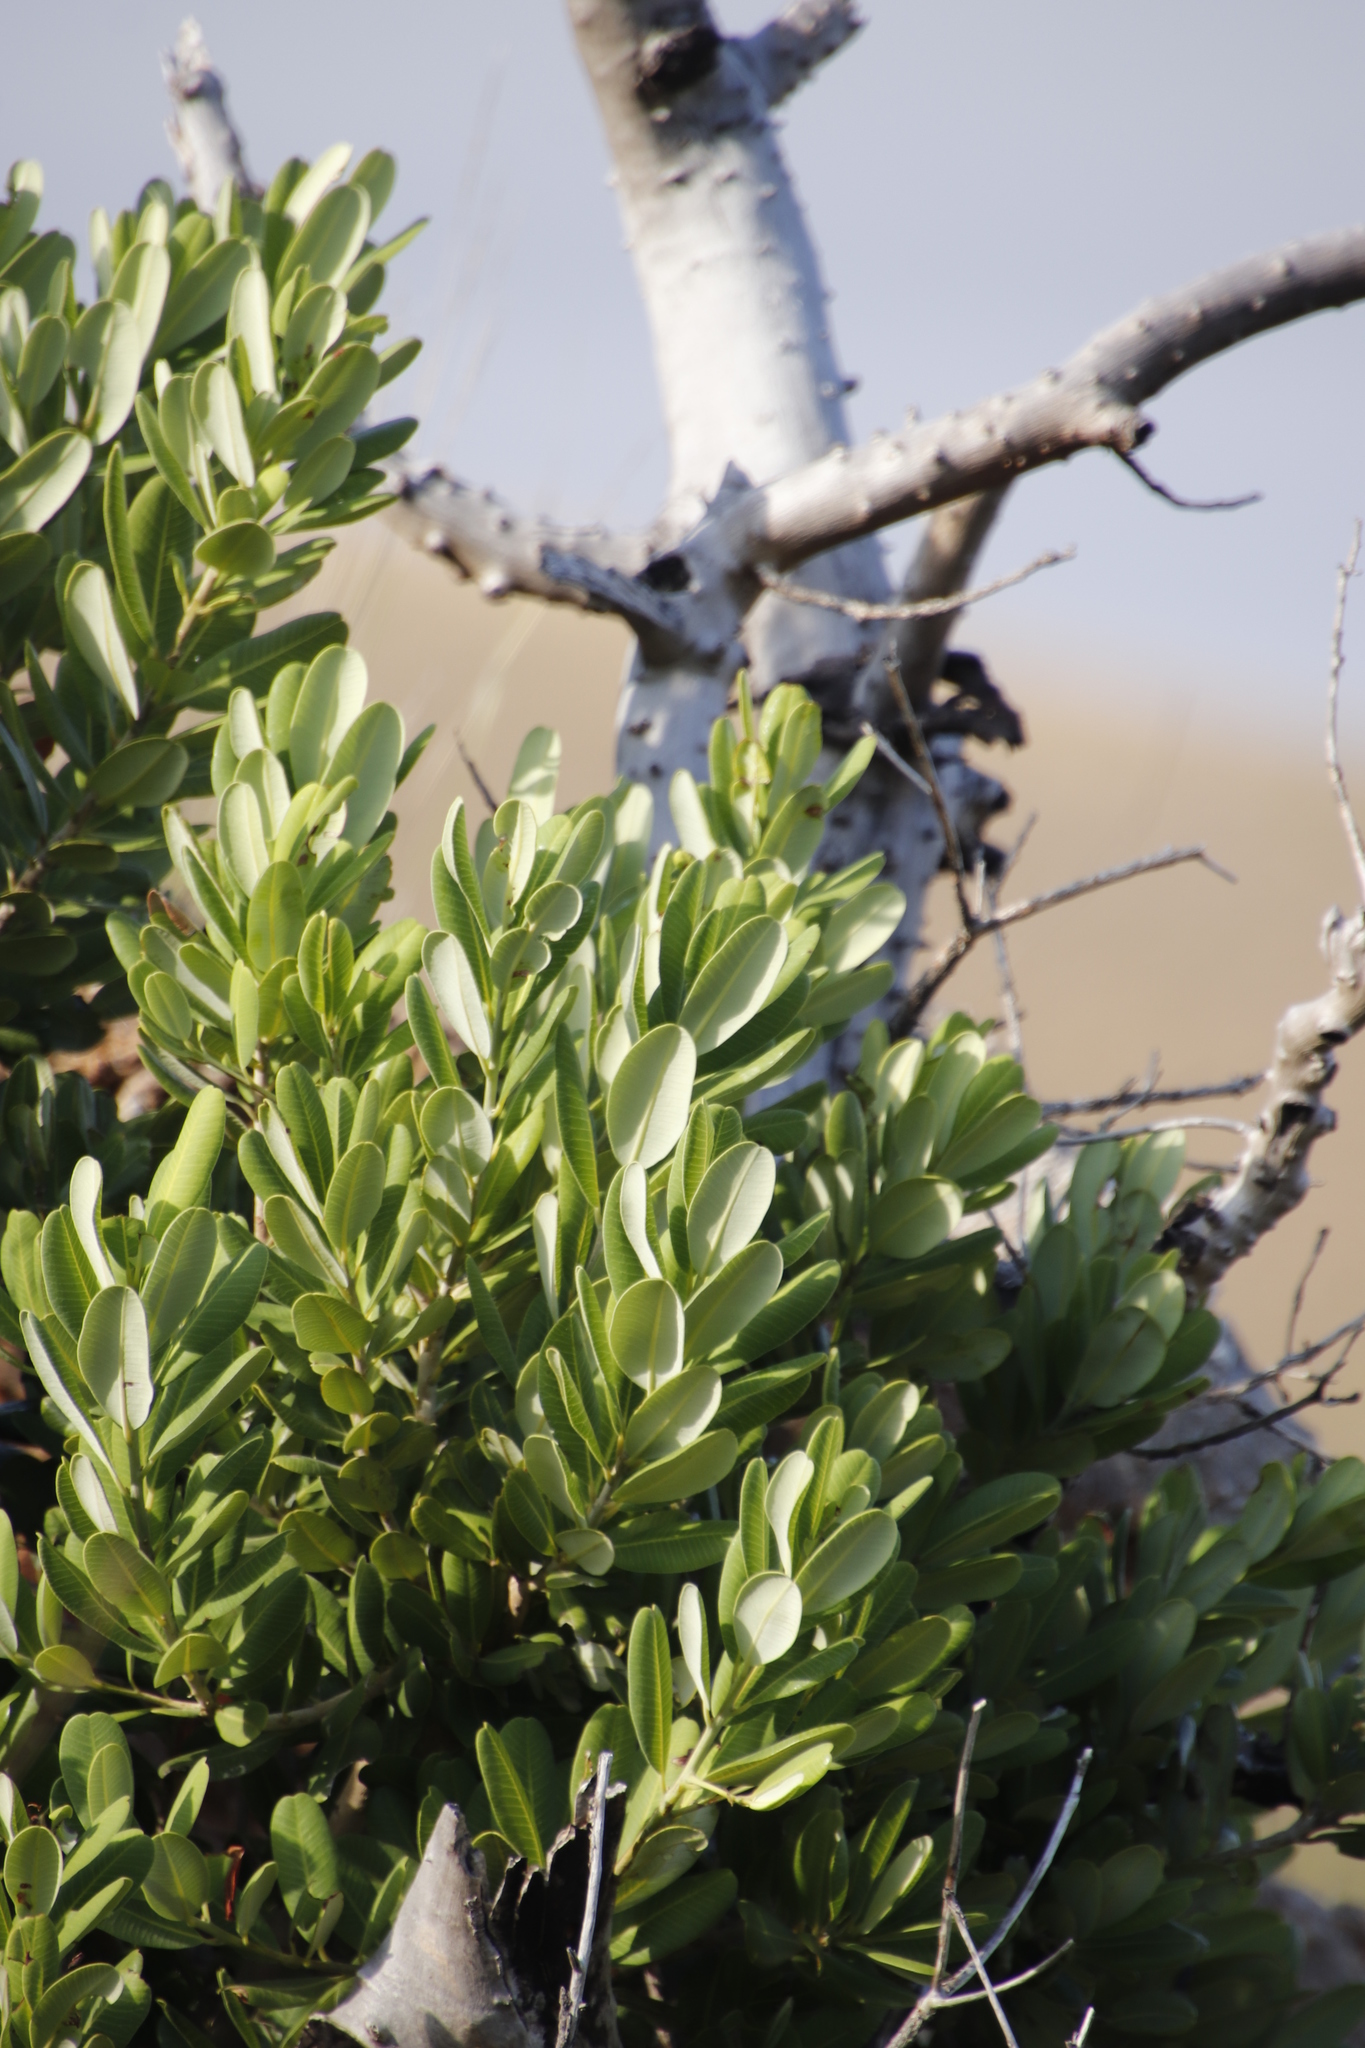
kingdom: Plantae
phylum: Tracheophyta
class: Magnoliopsida
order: Sapindales
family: Anacardiaceae
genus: Heeria
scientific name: Heeria argentea
